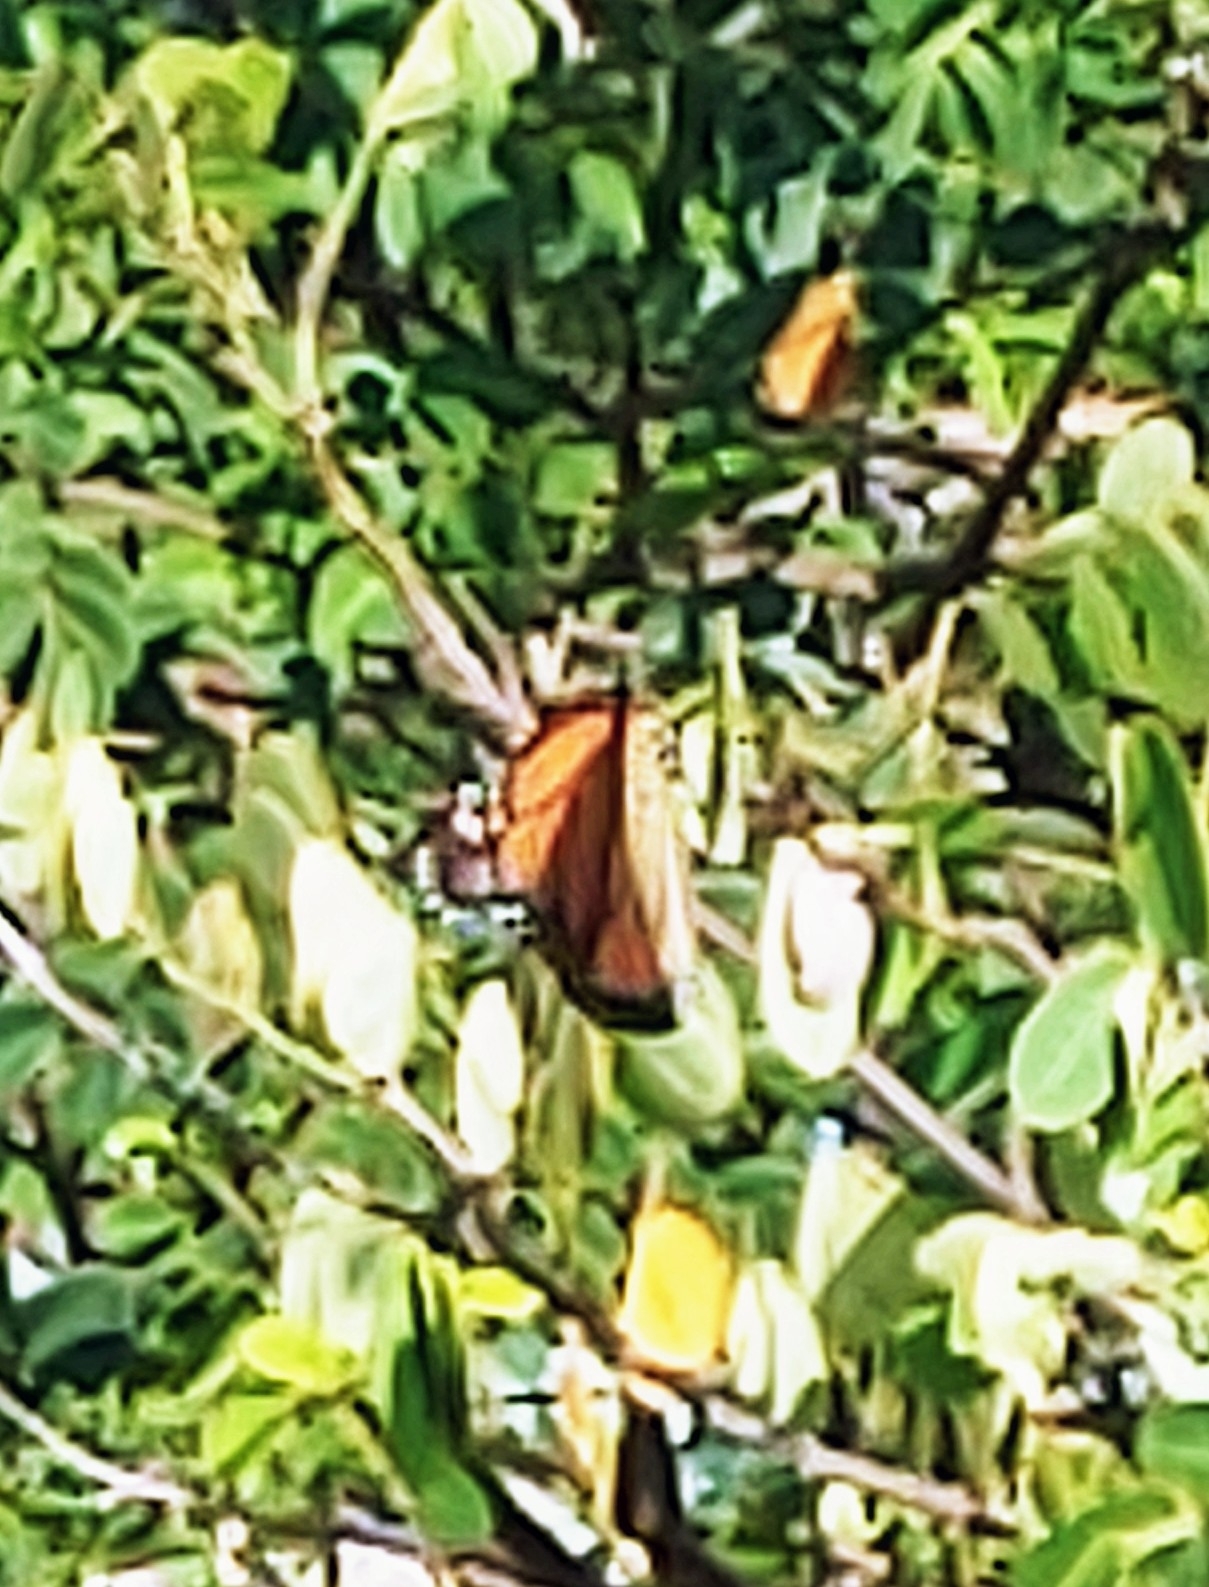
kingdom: Animalia
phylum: Arthropoda
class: Insecta
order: Lepidoptera
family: Nymphalidae
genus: Danaus
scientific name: Danaus plexippus
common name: Monarch
